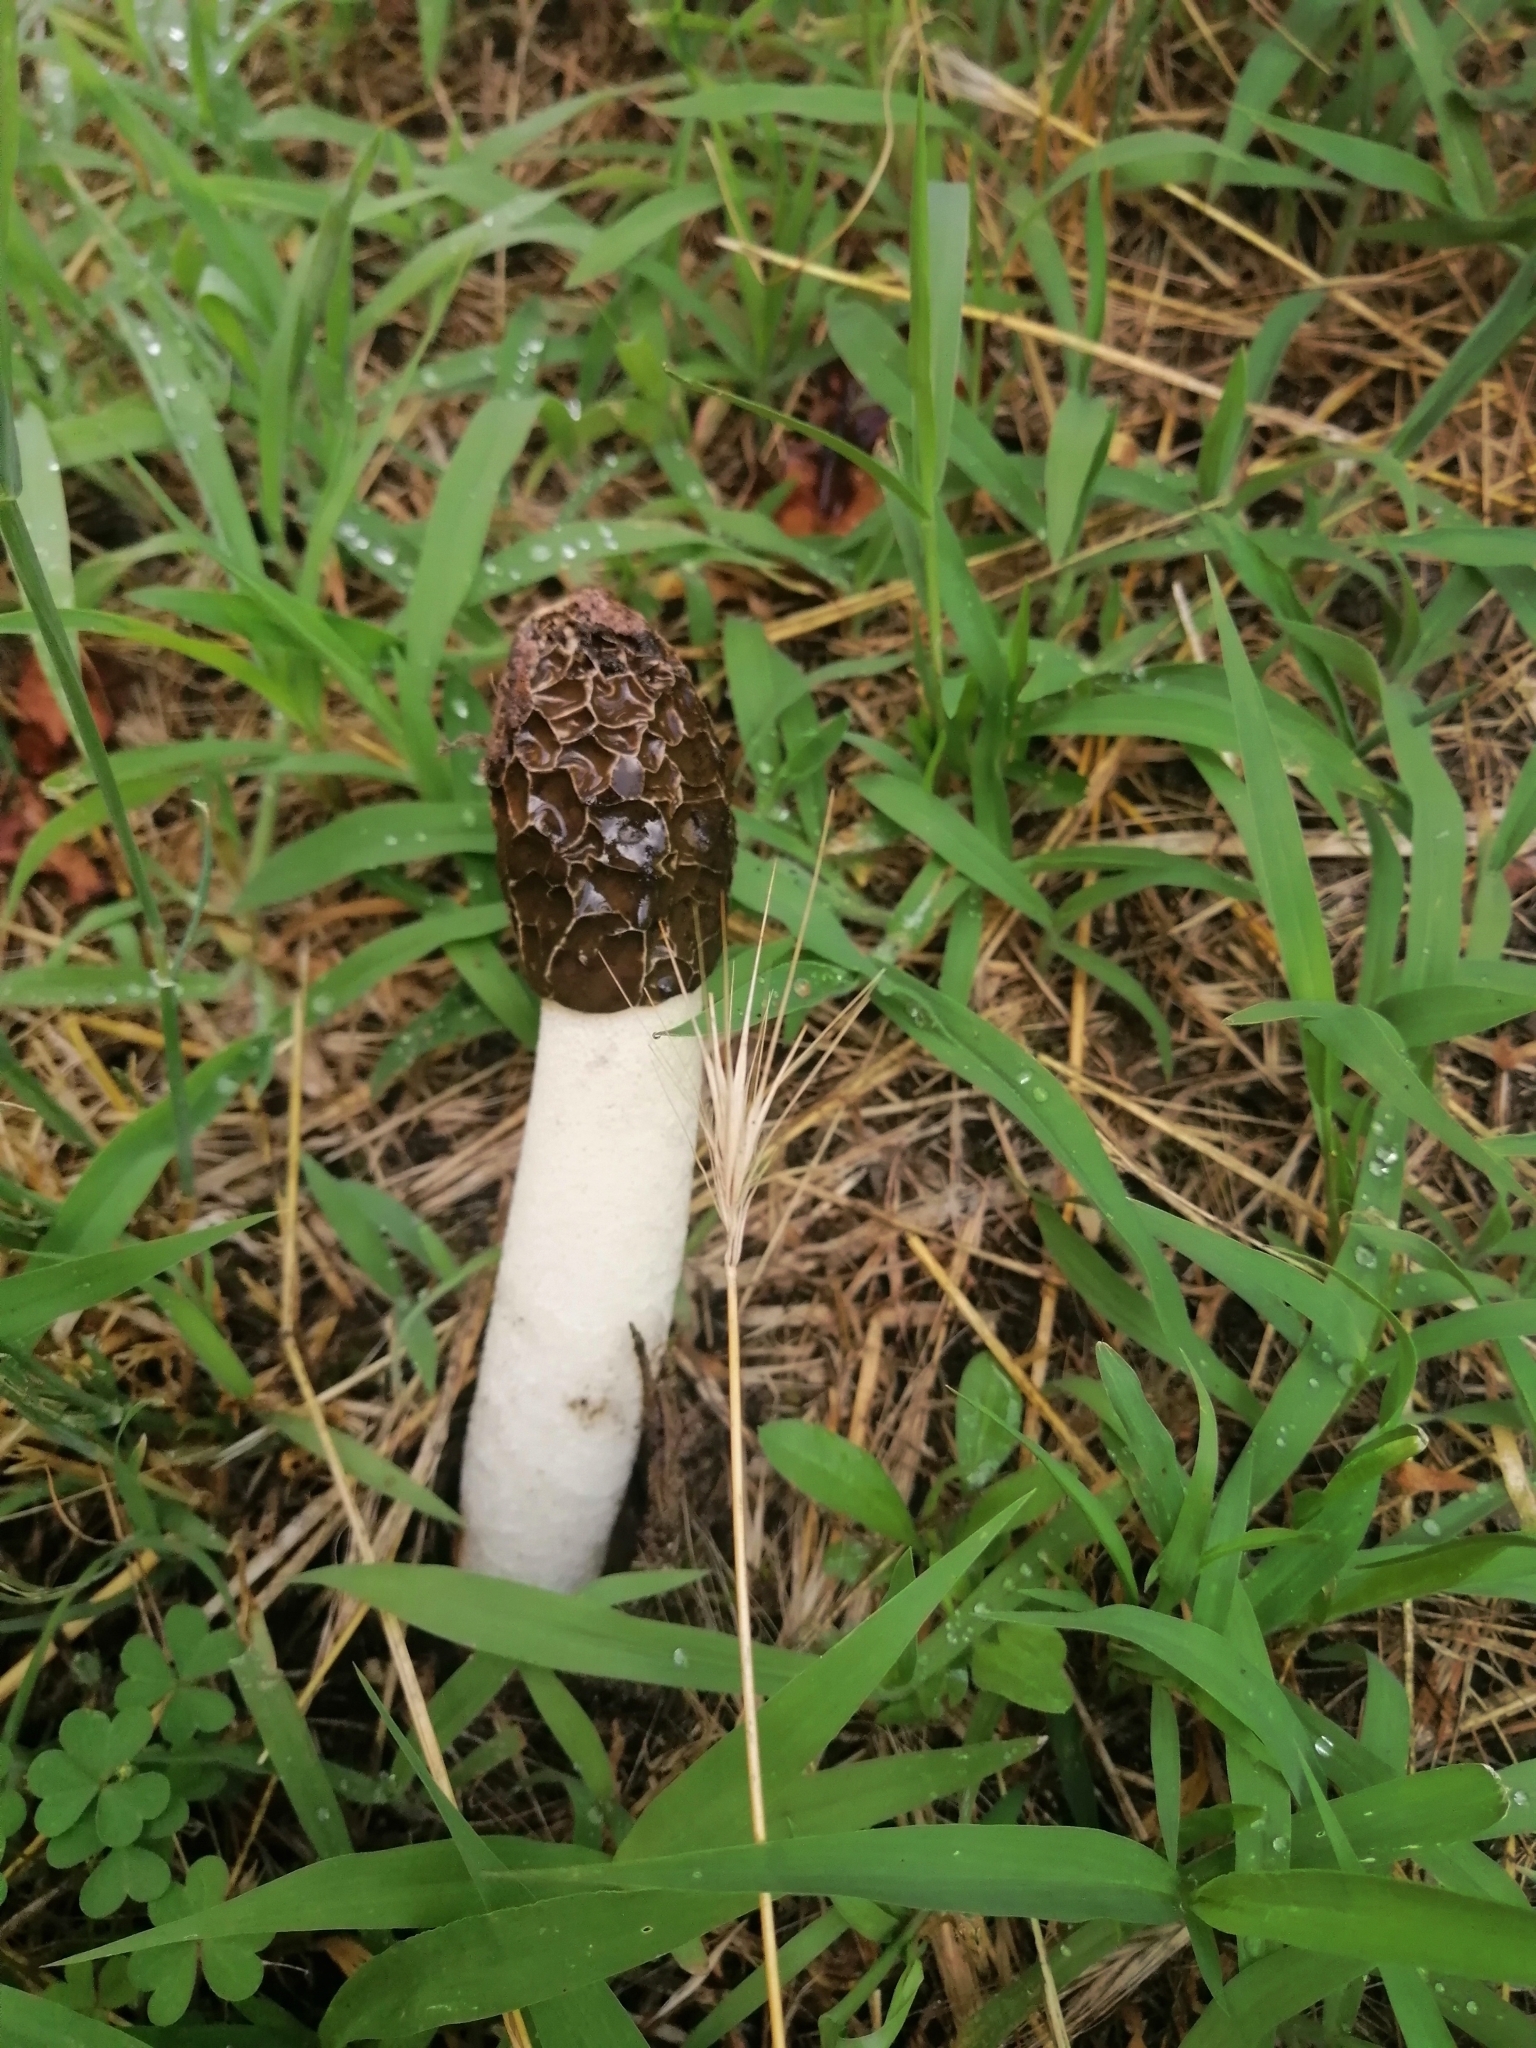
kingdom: Fungi
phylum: Basidiomycota
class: Agaricomycetes
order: Phallales
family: Phallaceae
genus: Phallus
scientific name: Phallus hadriani
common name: Sand stinkhorn
